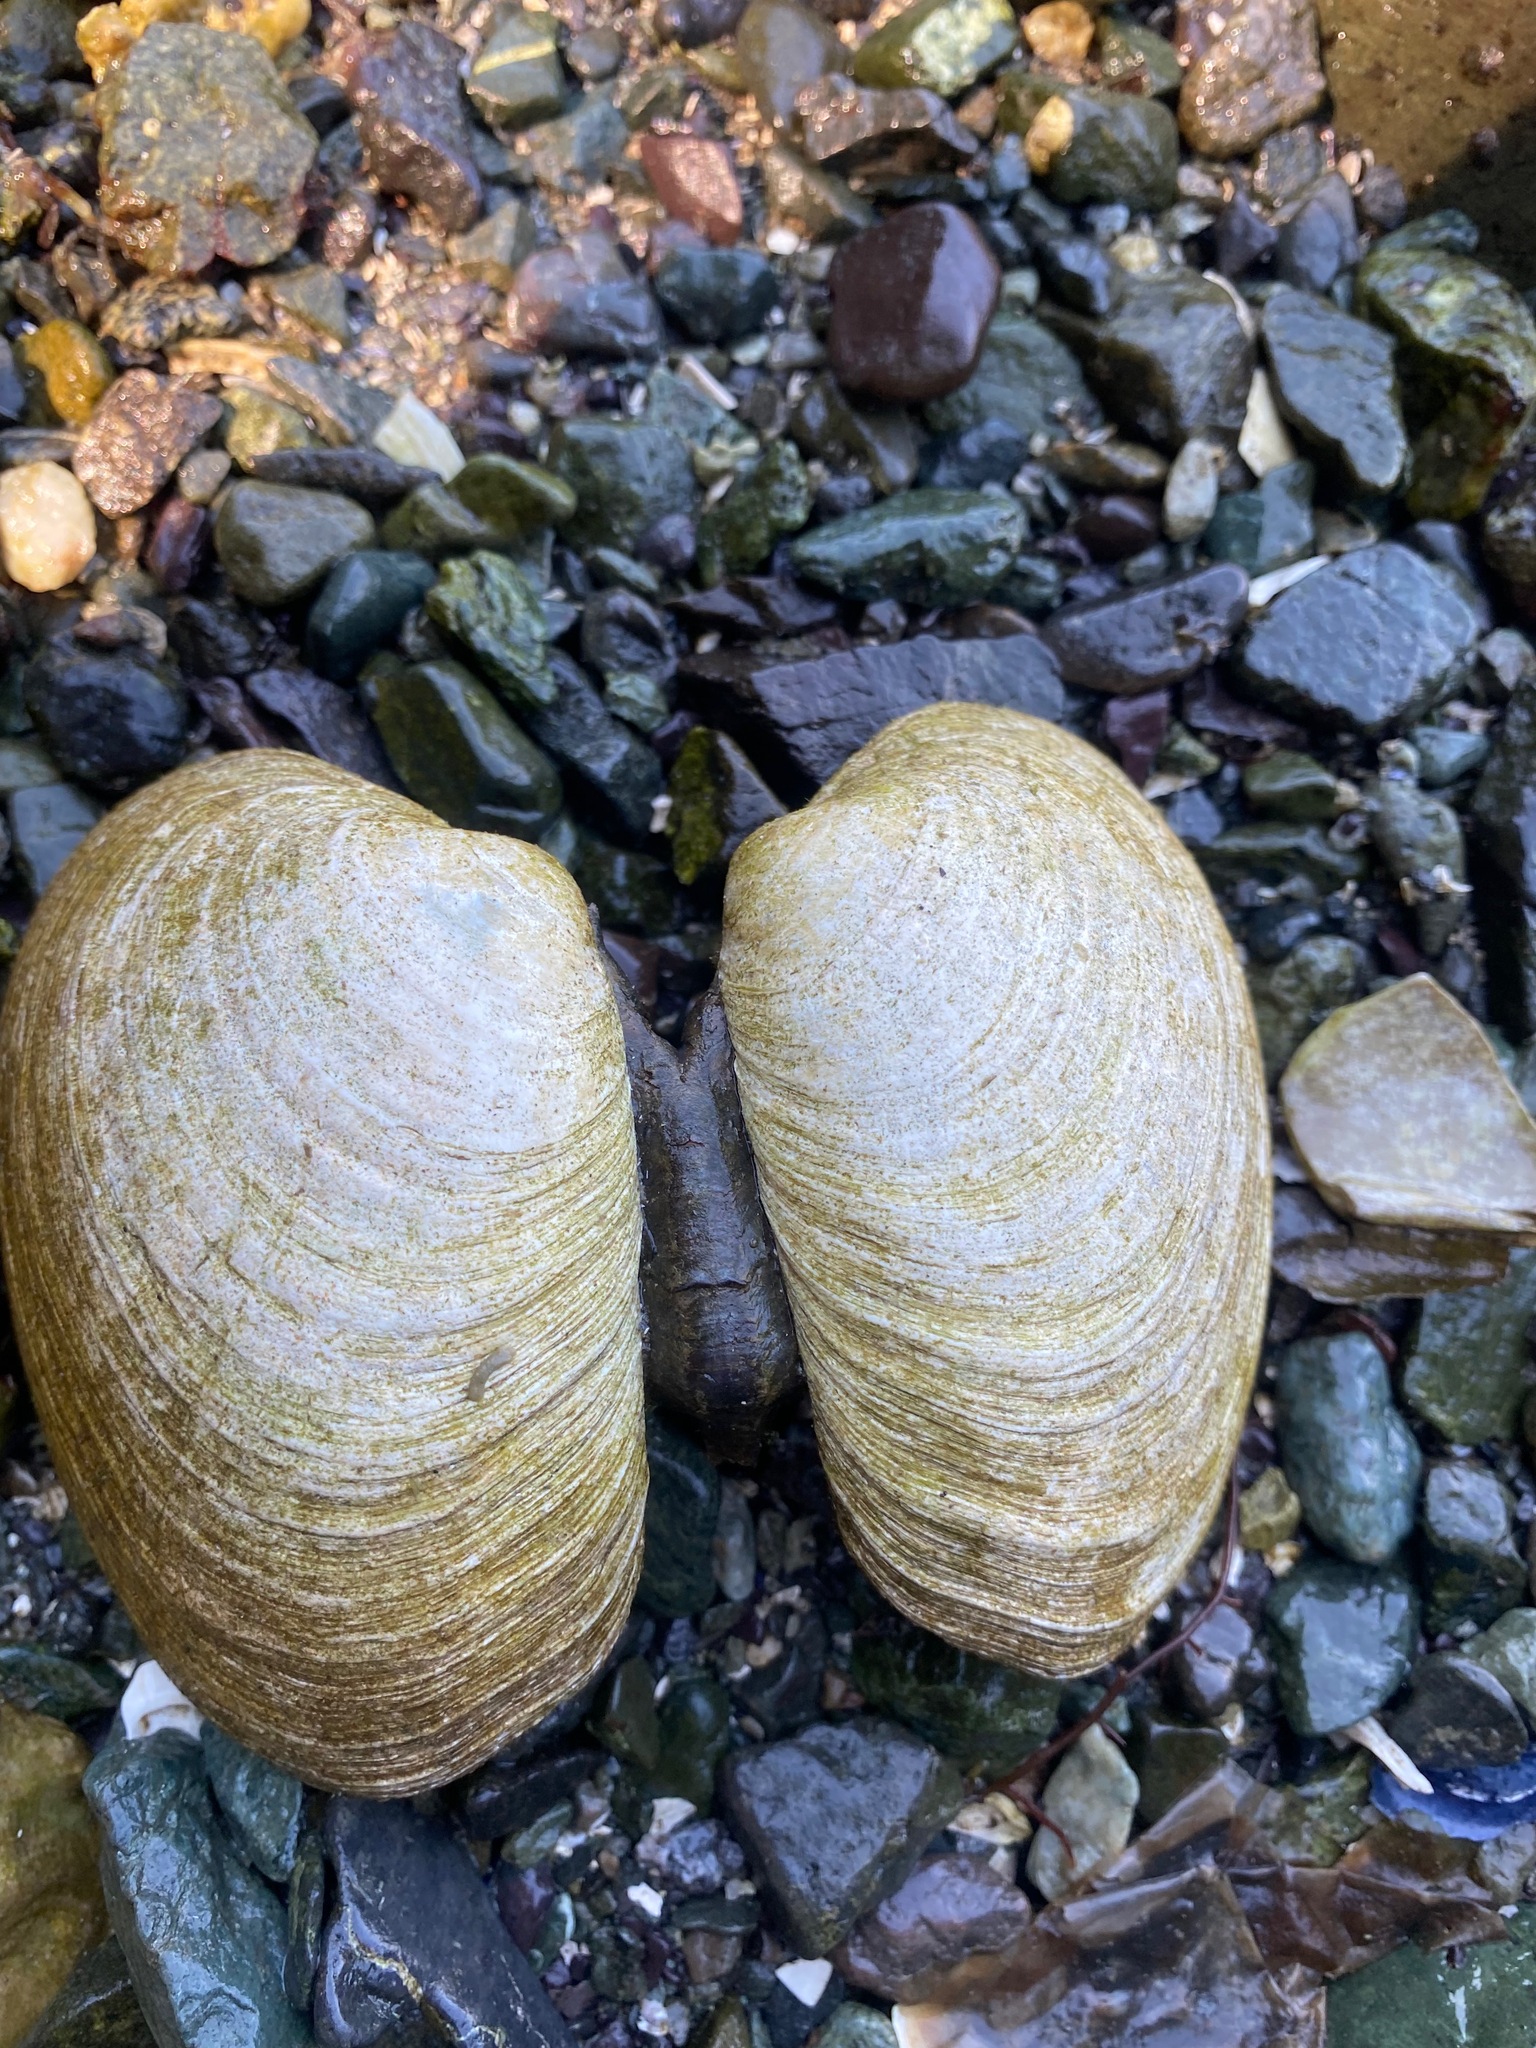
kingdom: Animalia
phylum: Mollusca
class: Bivalvia
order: Venerida
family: Veneridae
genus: Saxidomus
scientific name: Saxidomus gigantea
